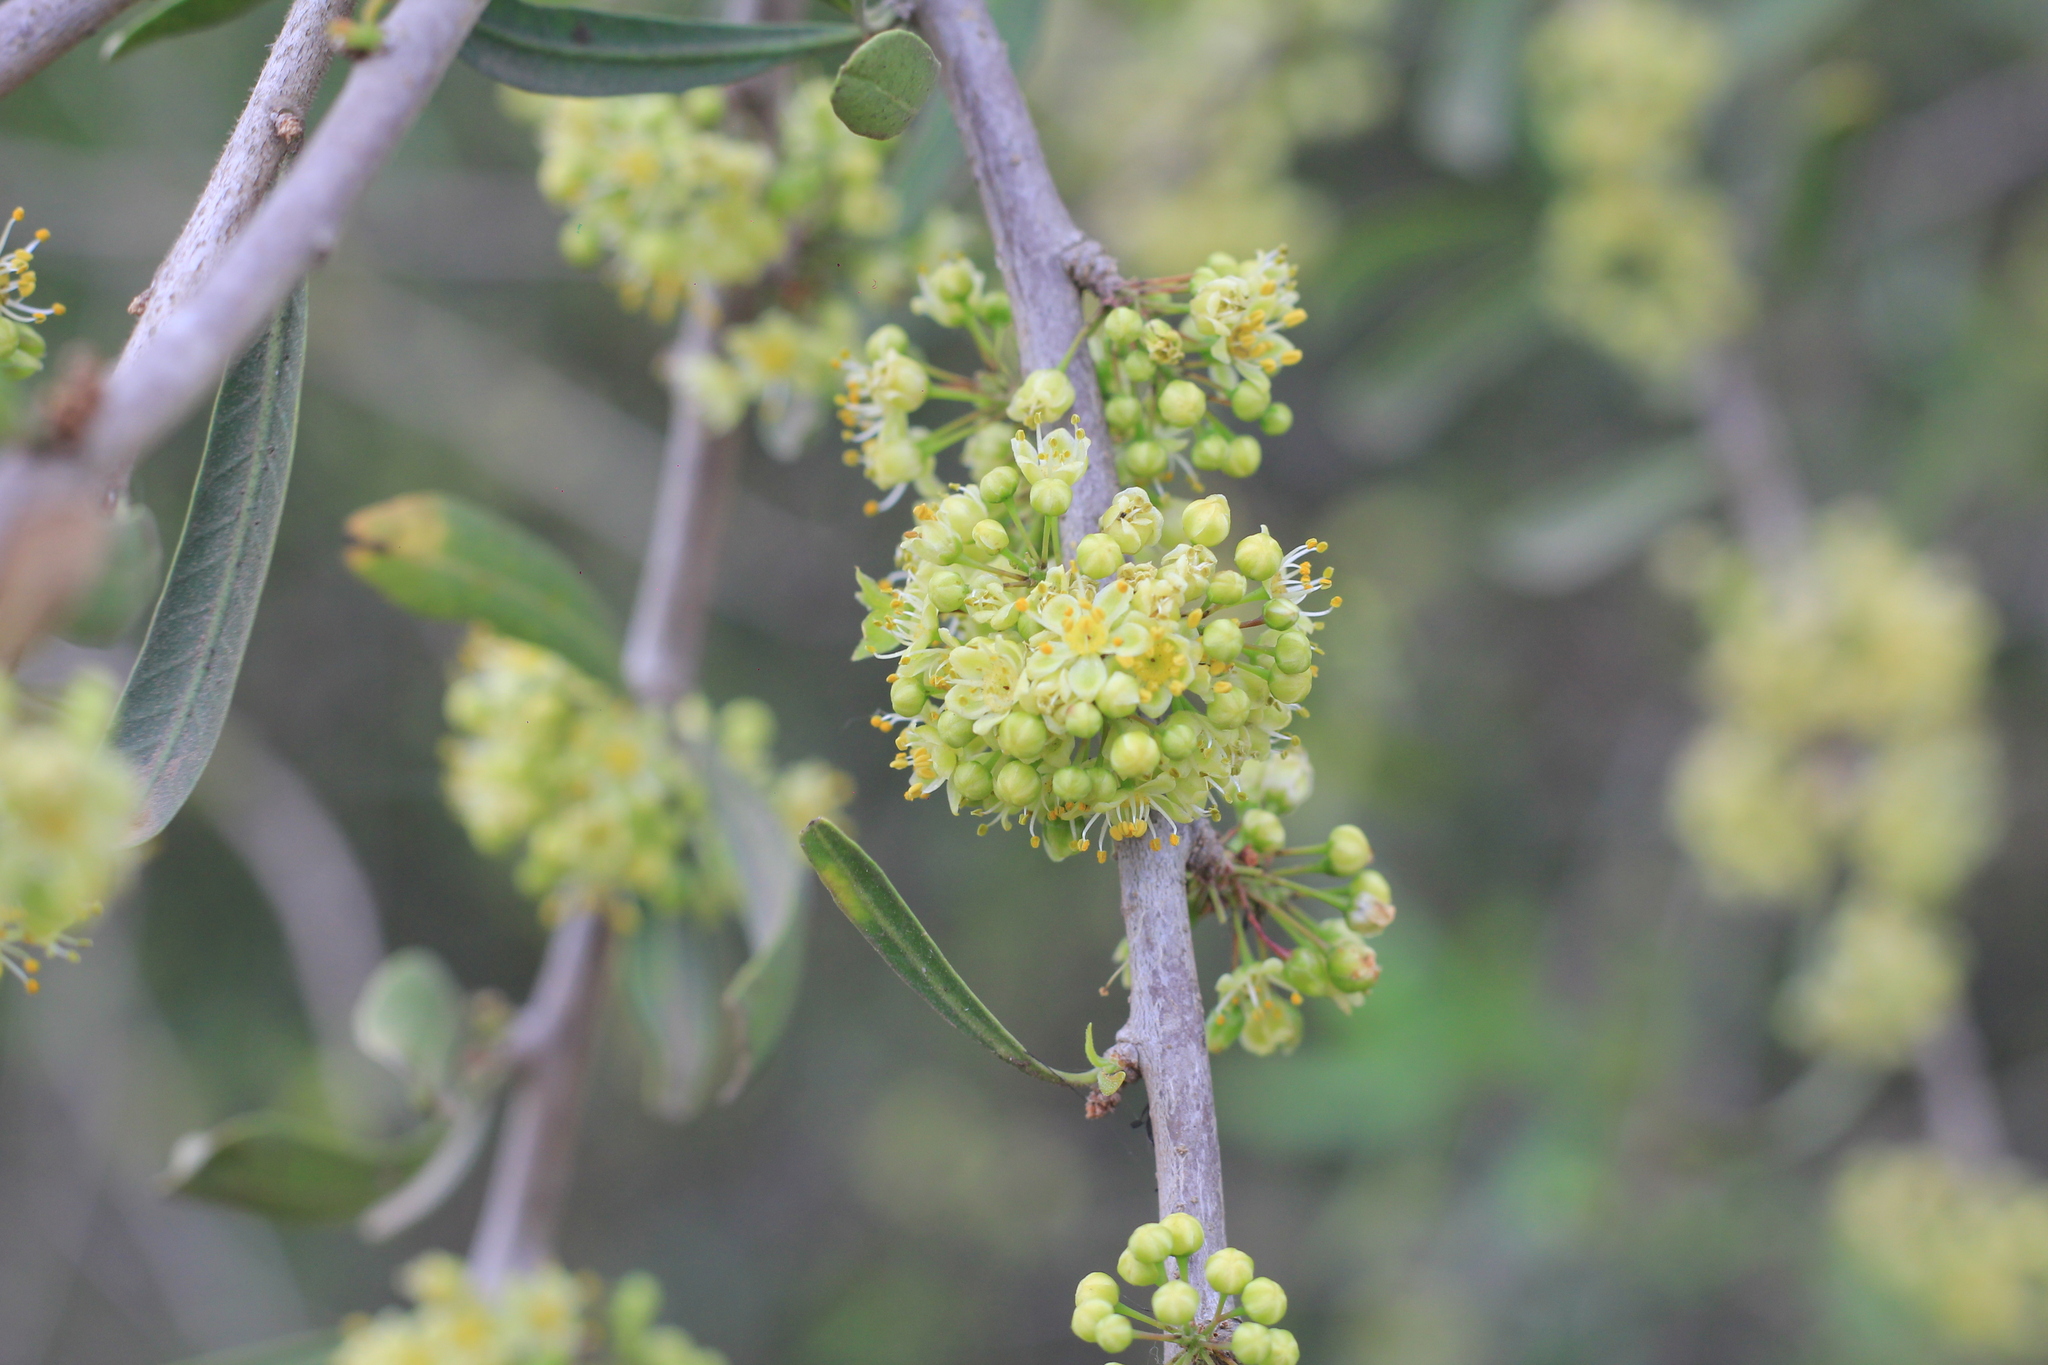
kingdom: Plantae
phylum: Tracheophyta
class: Magnoliopsida
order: Sapindales
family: Anacardiaceae
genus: Schinus
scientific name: Schinus longifolia
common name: Longleaf peppertree
